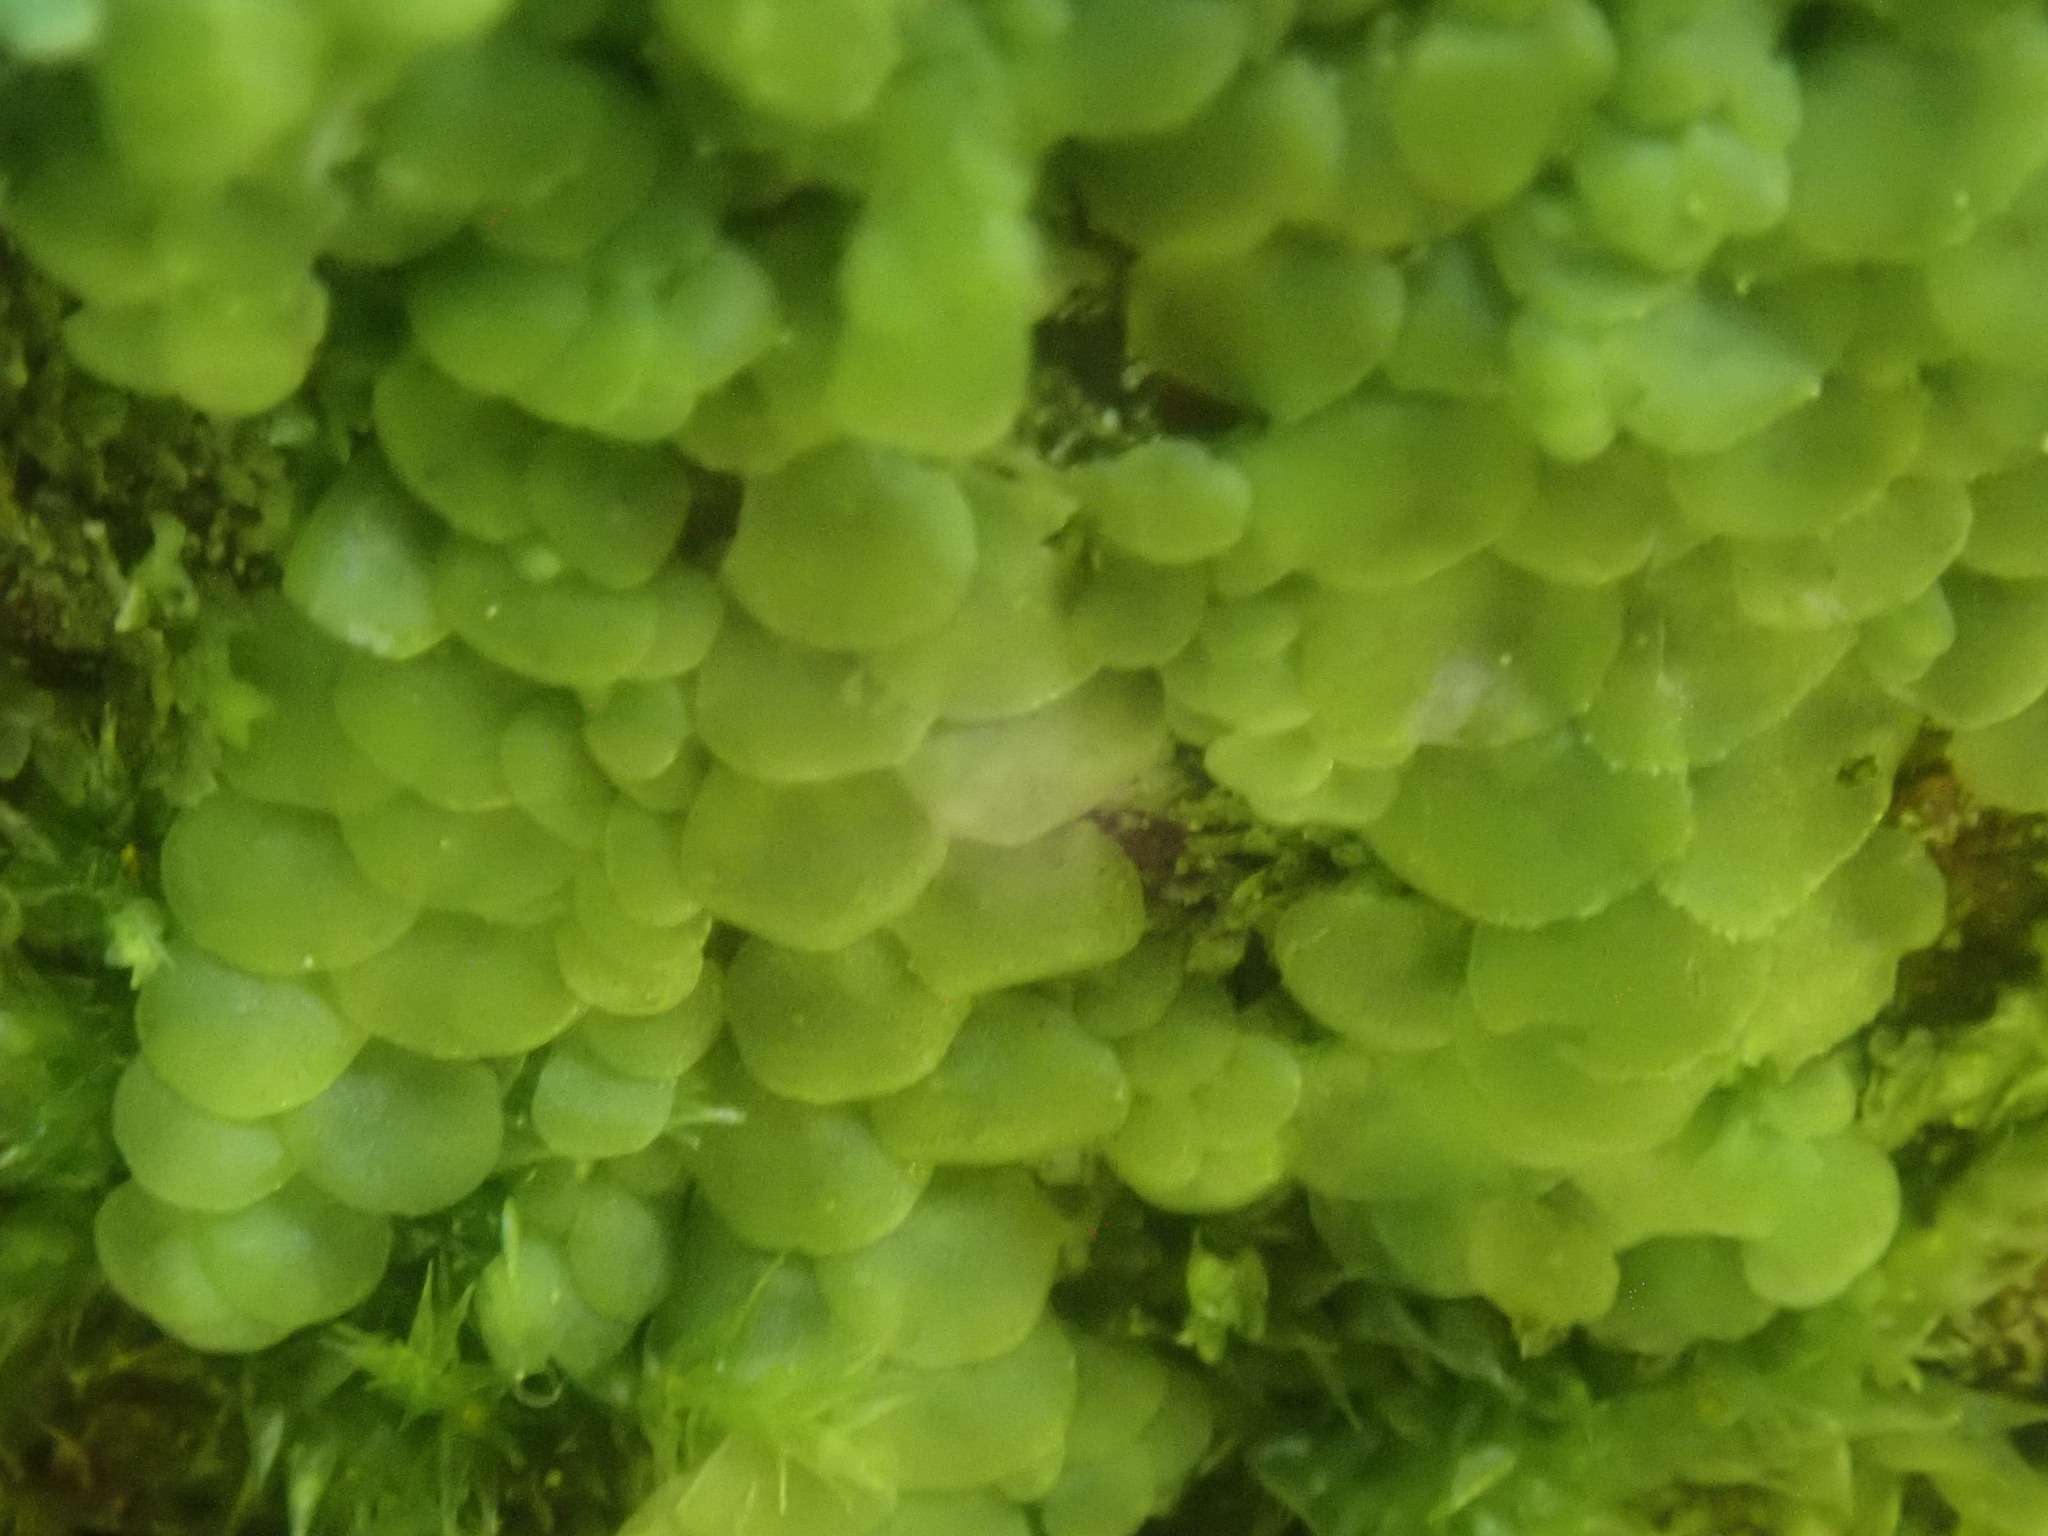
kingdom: Plantae
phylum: Marchantiophyta
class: Jungermanniopsida
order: Porellales
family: Radulaceae
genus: Radula
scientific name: Radula complanata
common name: Flat-leaved scalewort
